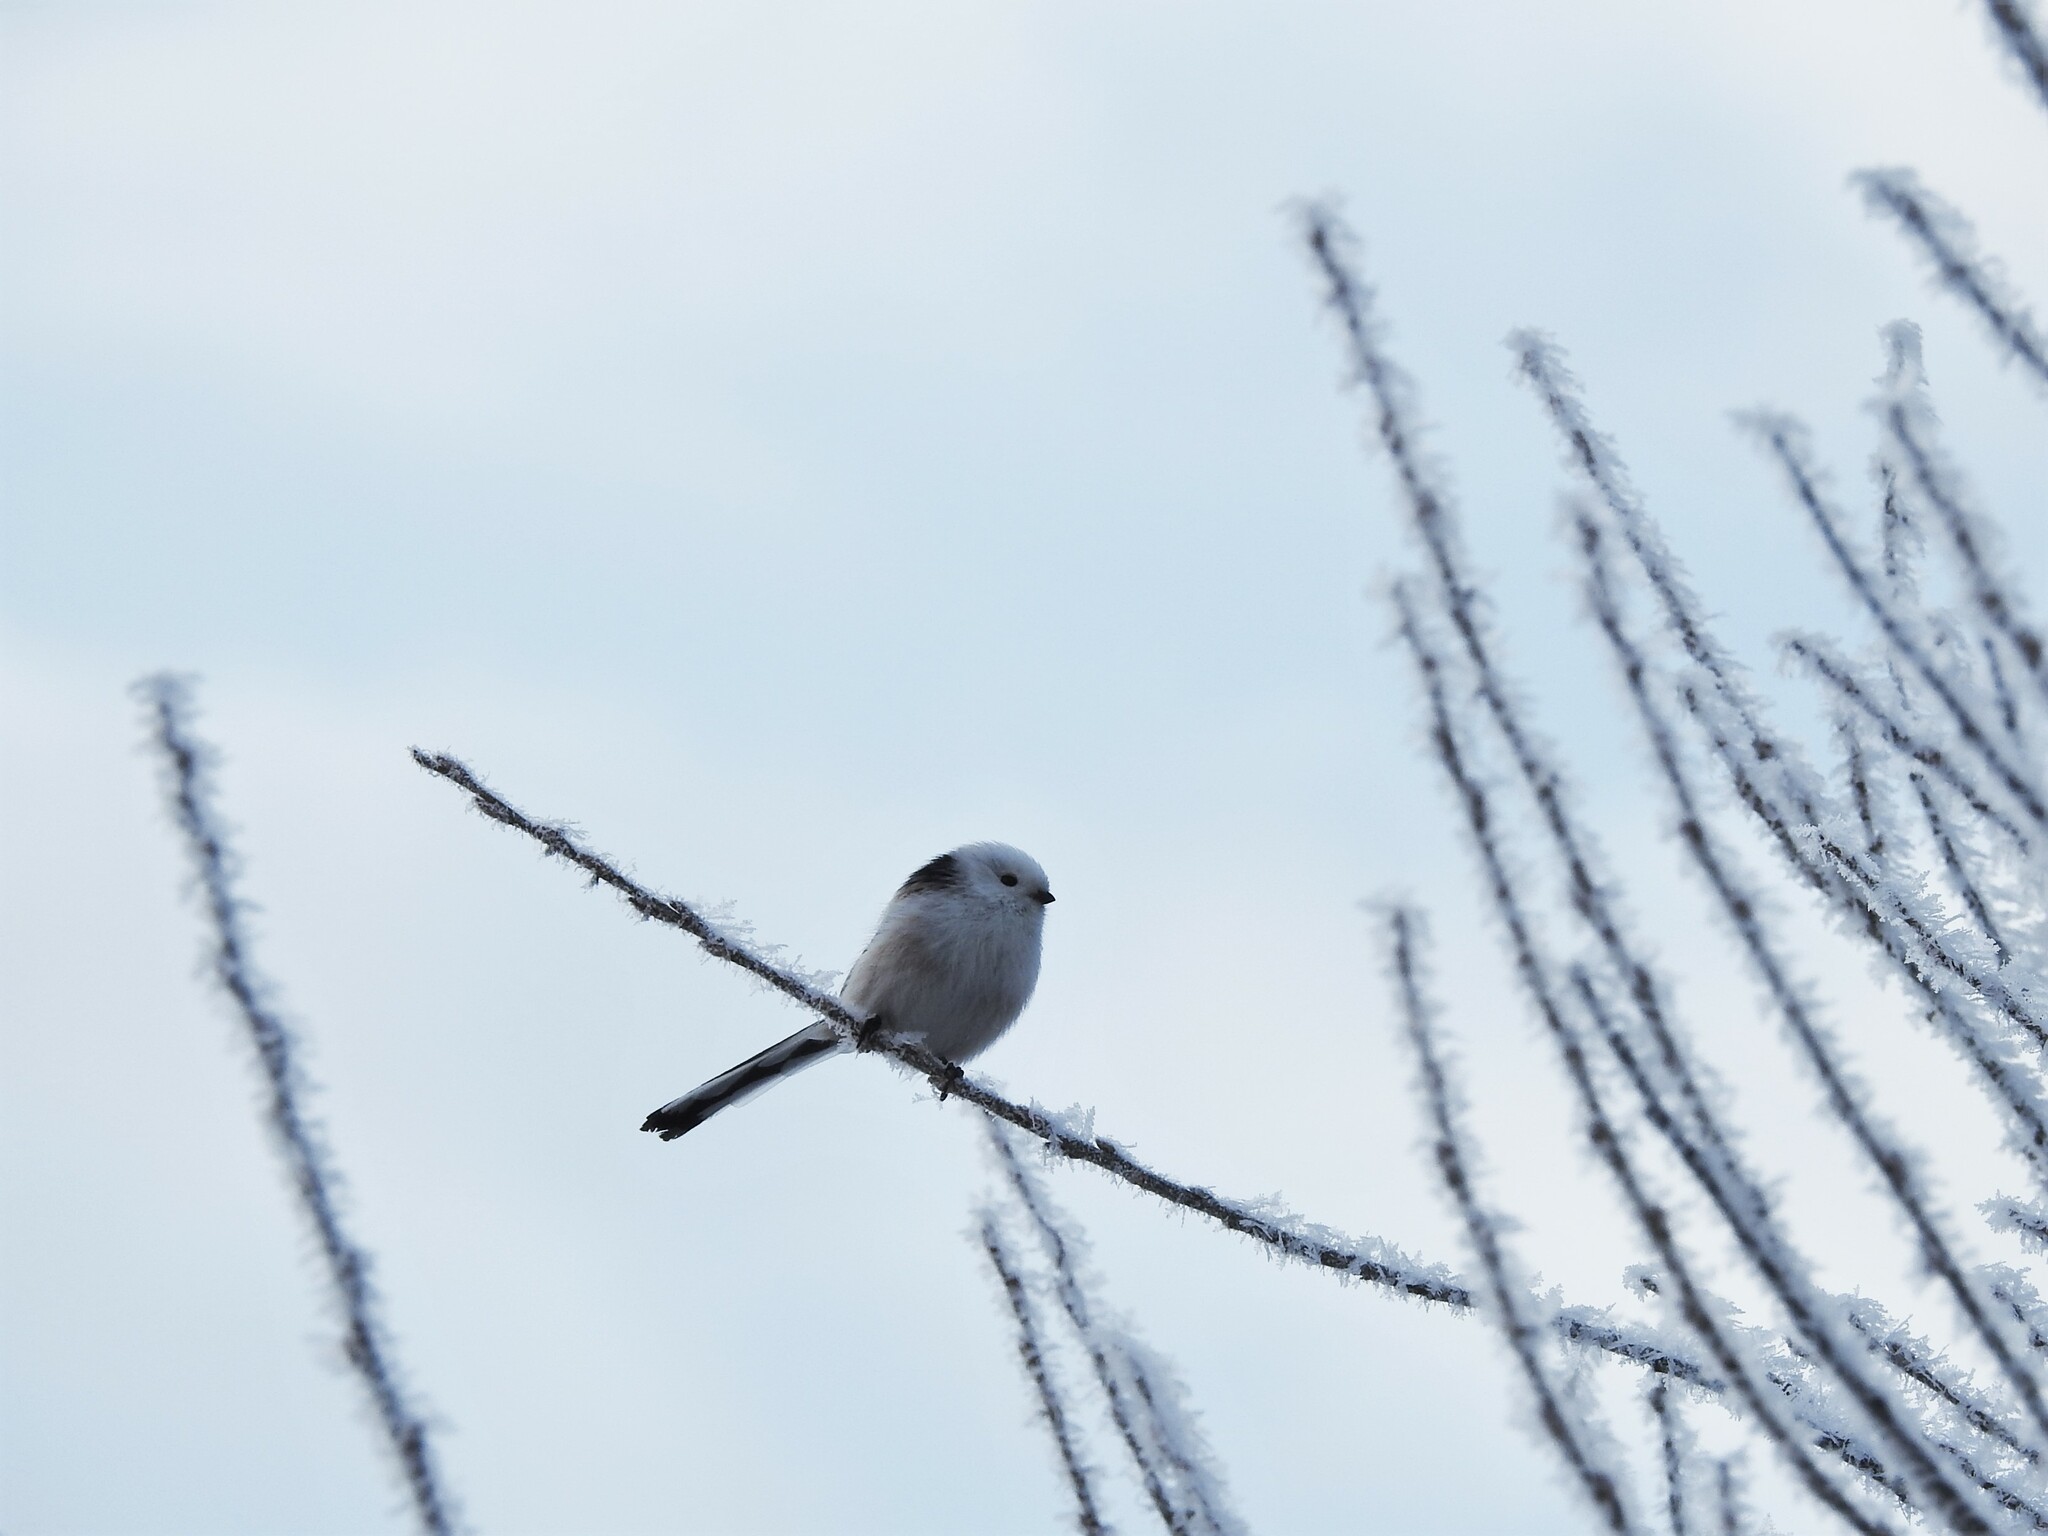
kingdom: Animalia
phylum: Chordata
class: Aves
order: Passeriformes
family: Aegithalidae
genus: Aegithalos
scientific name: Aegithalos caudatus
